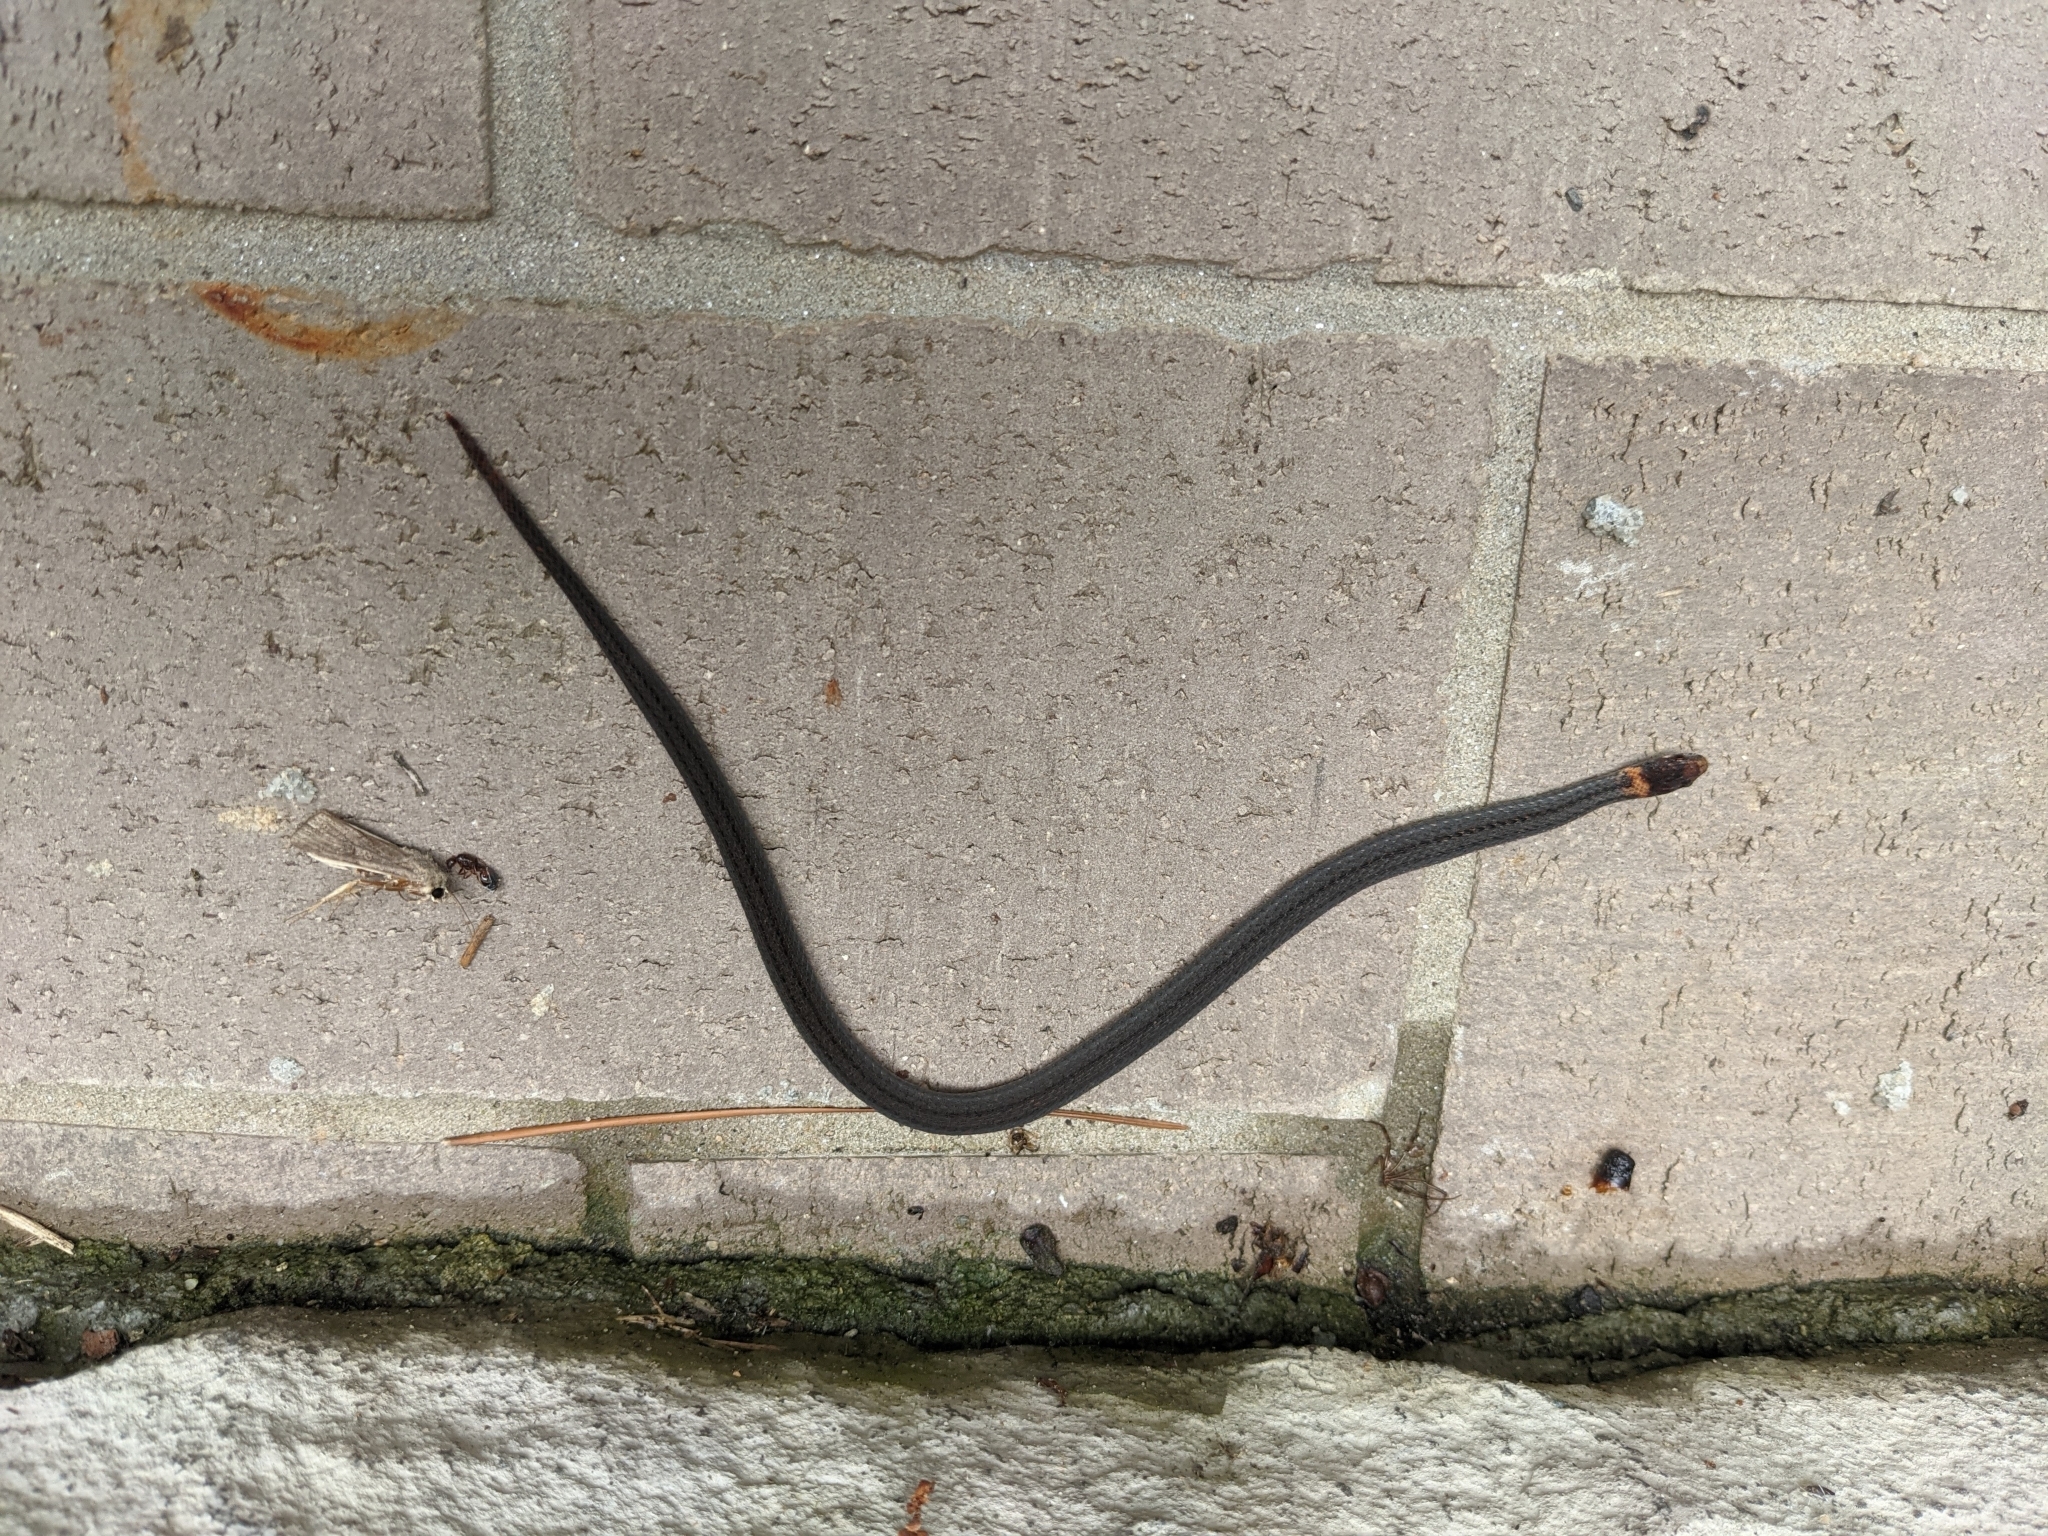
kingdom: Animalia
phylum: Chordata
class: Squamata
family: Colubridae
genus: Storeria
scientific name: Storeria occipitomaculata
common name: Redbelly snake
